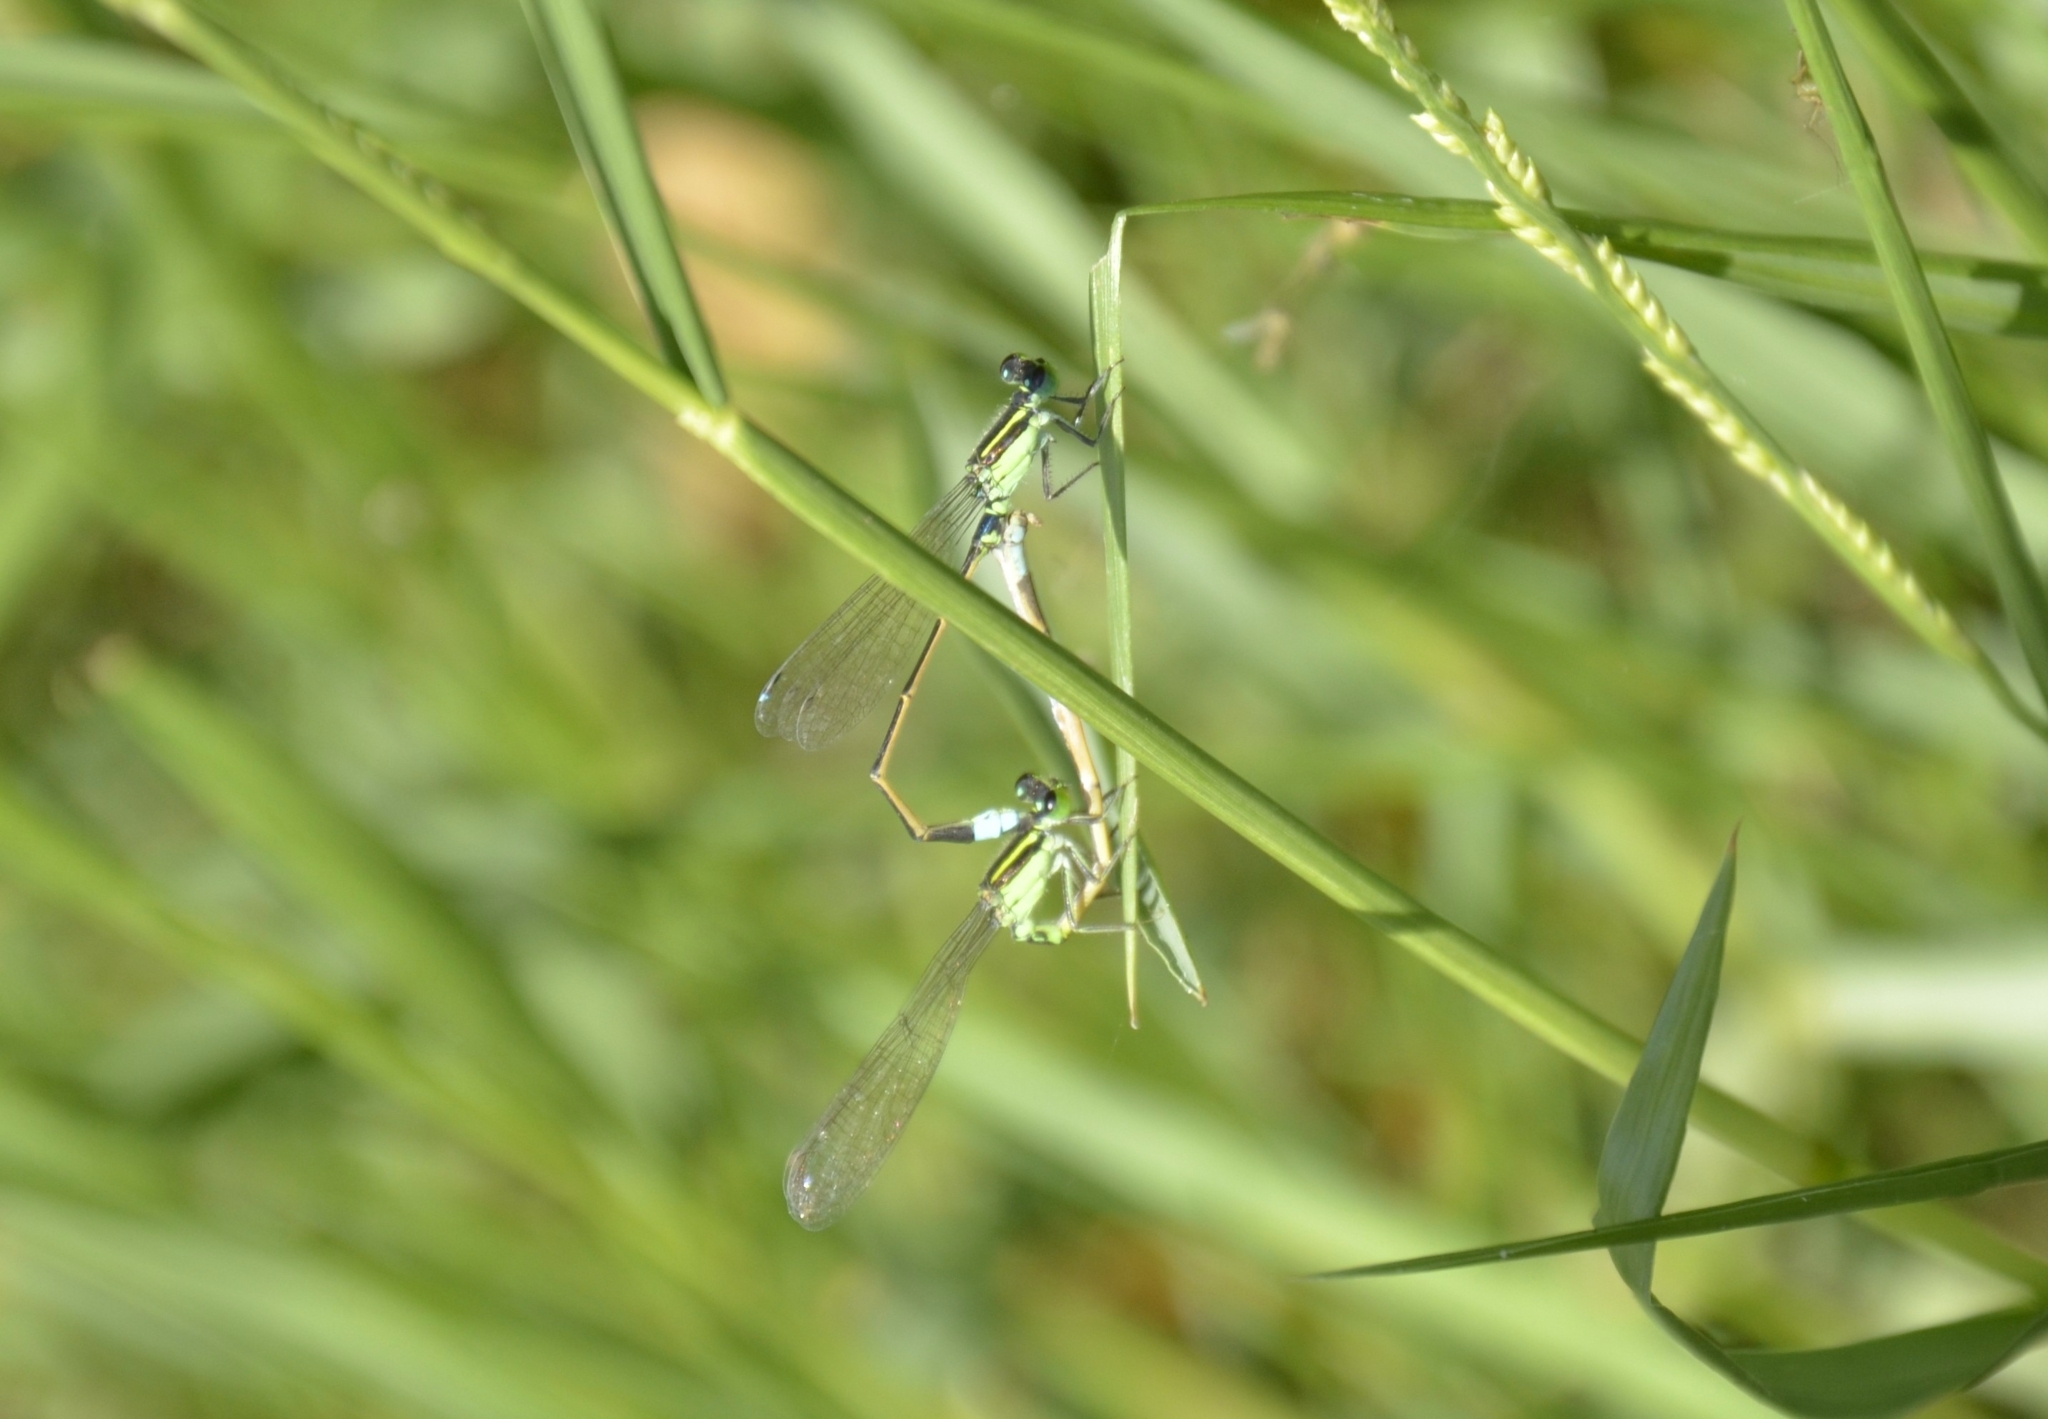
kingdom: Animalia
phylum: Arthropoda
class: Insecta
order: Odonata
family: Coenagrionidae
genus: Ischnura
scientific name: Ischnura senegalensis
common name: Tropical bluetail
